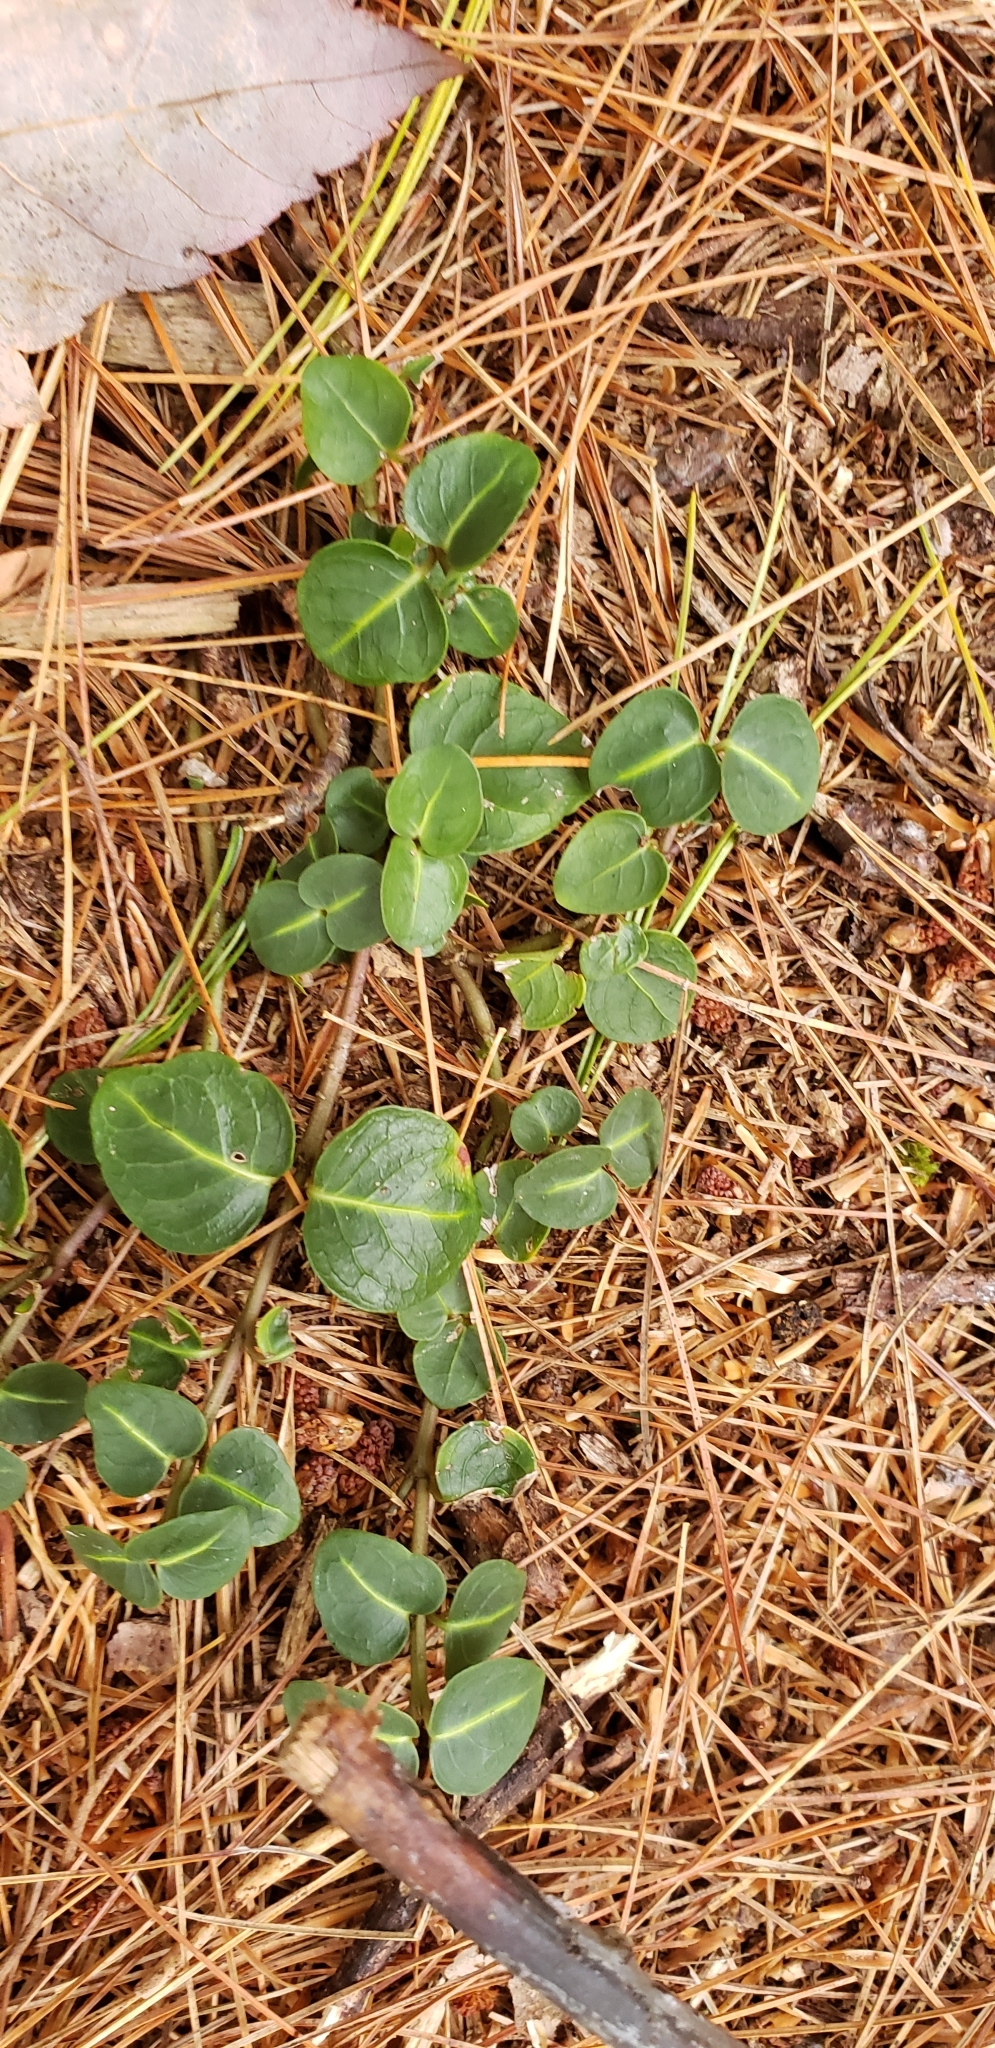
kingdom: Plantae
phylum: Tracheophyta
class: Magnoliopsida
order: Gentianales
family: Rubiaceae
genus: Mitchella
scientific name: Mitchella repens
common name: Partridge-berry
